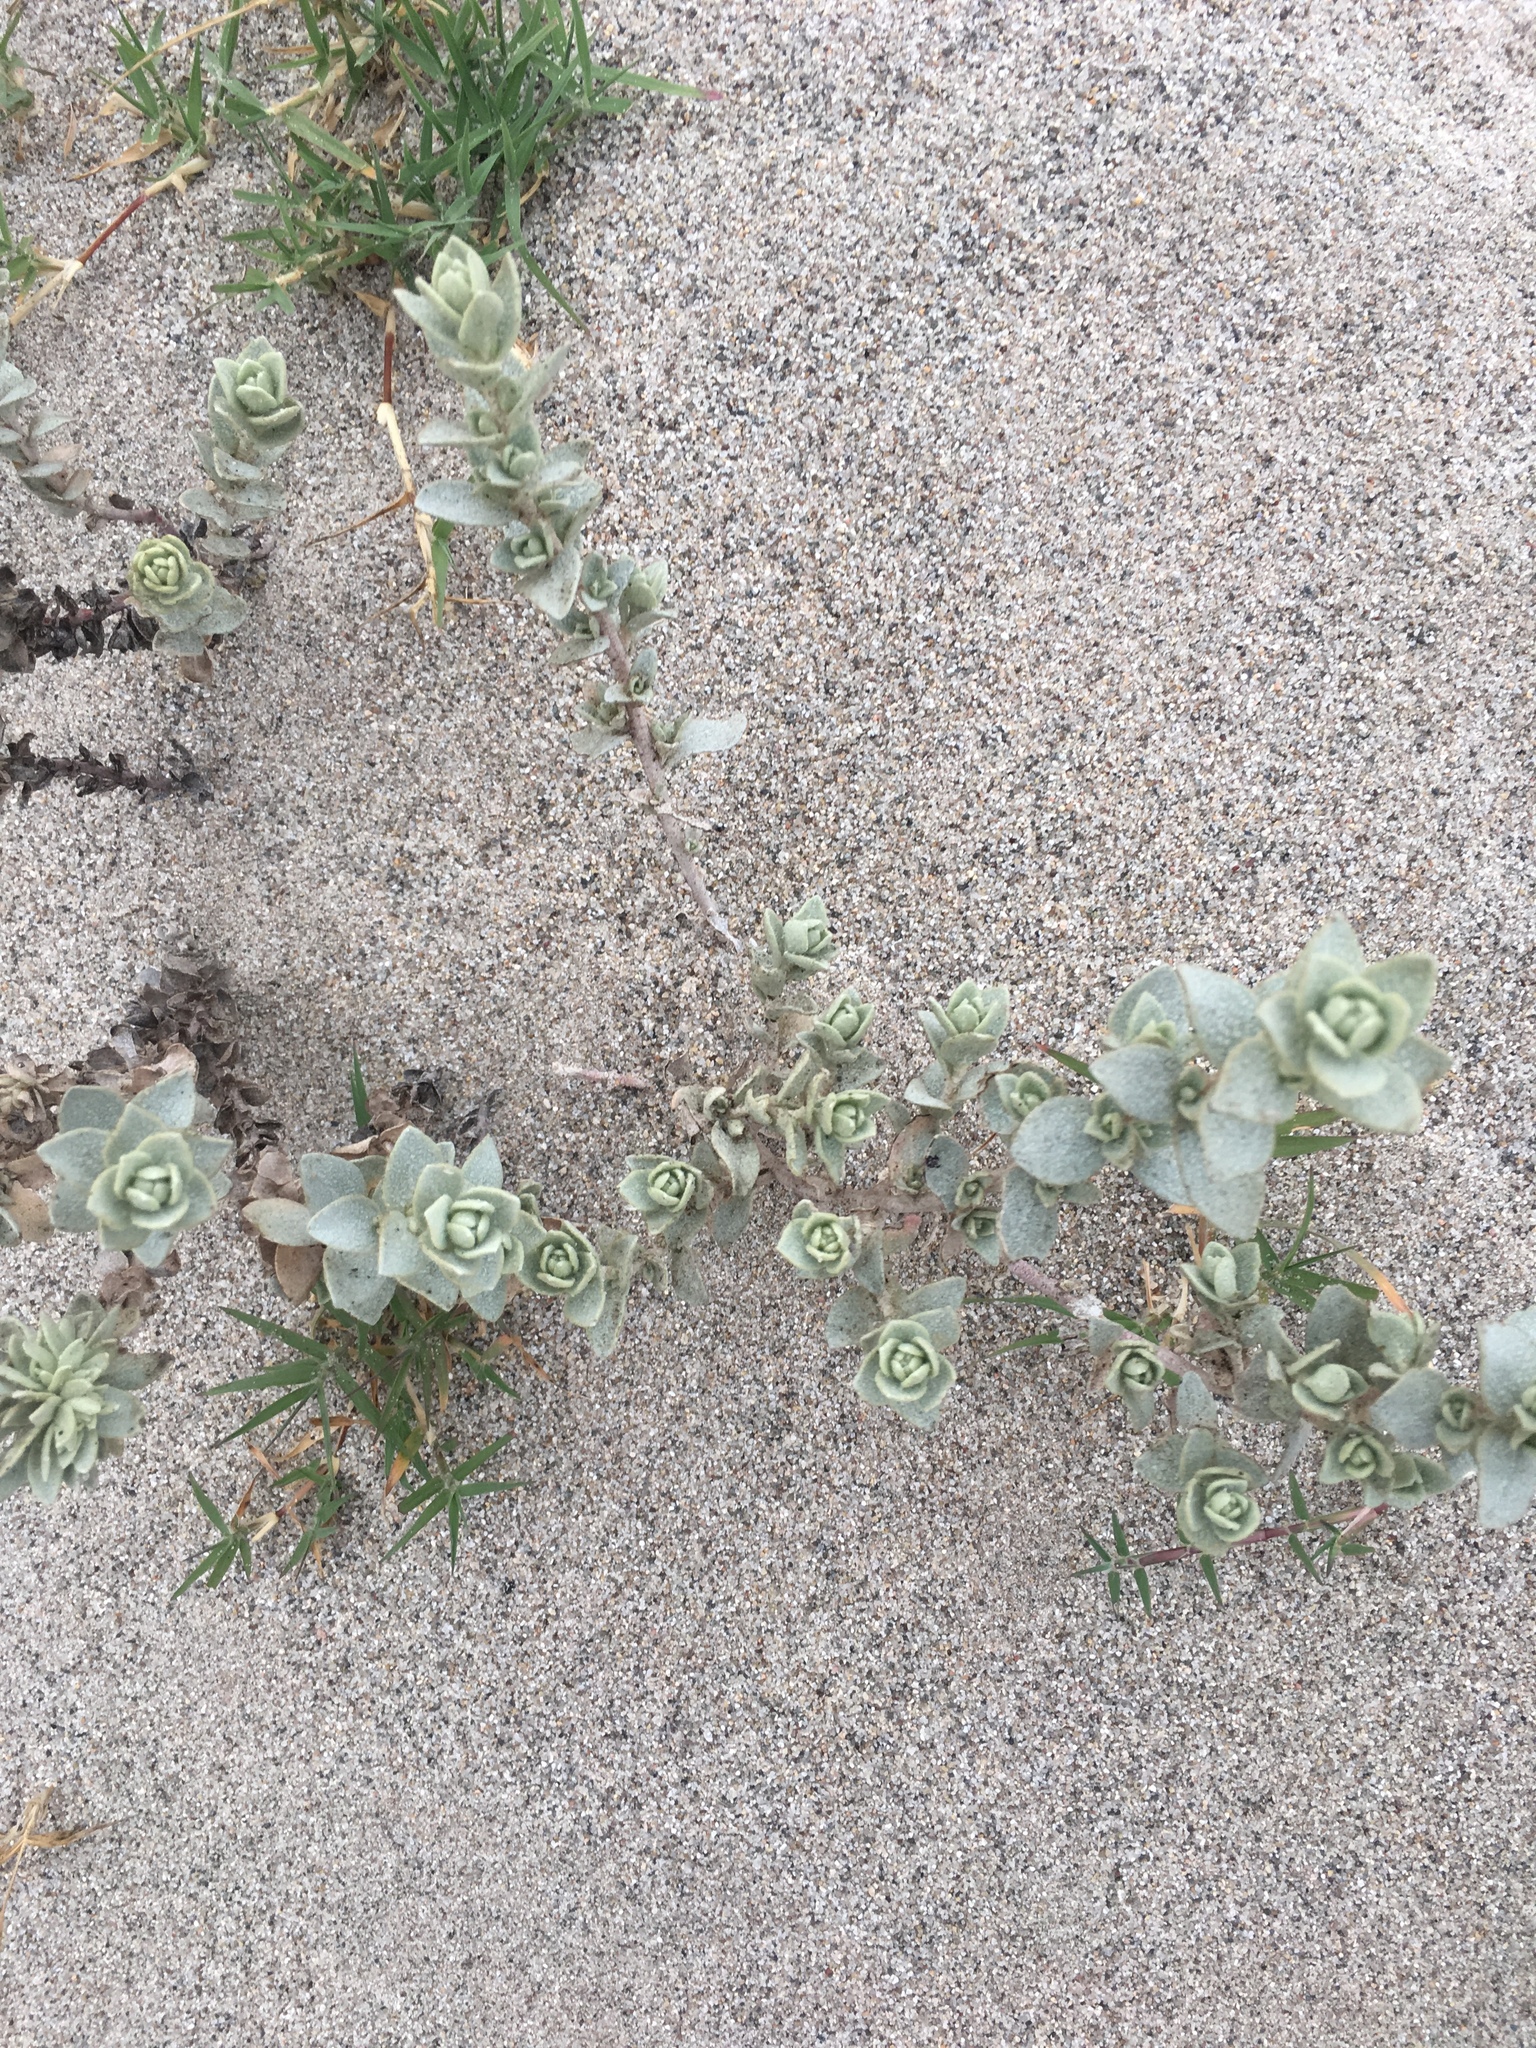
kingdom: Plantae
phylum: Tracheophyta
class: Magnoliopsida
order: Caryophyllales
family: Amaranthaceae
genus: Atriplex
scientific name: Atriplex leucophylla
